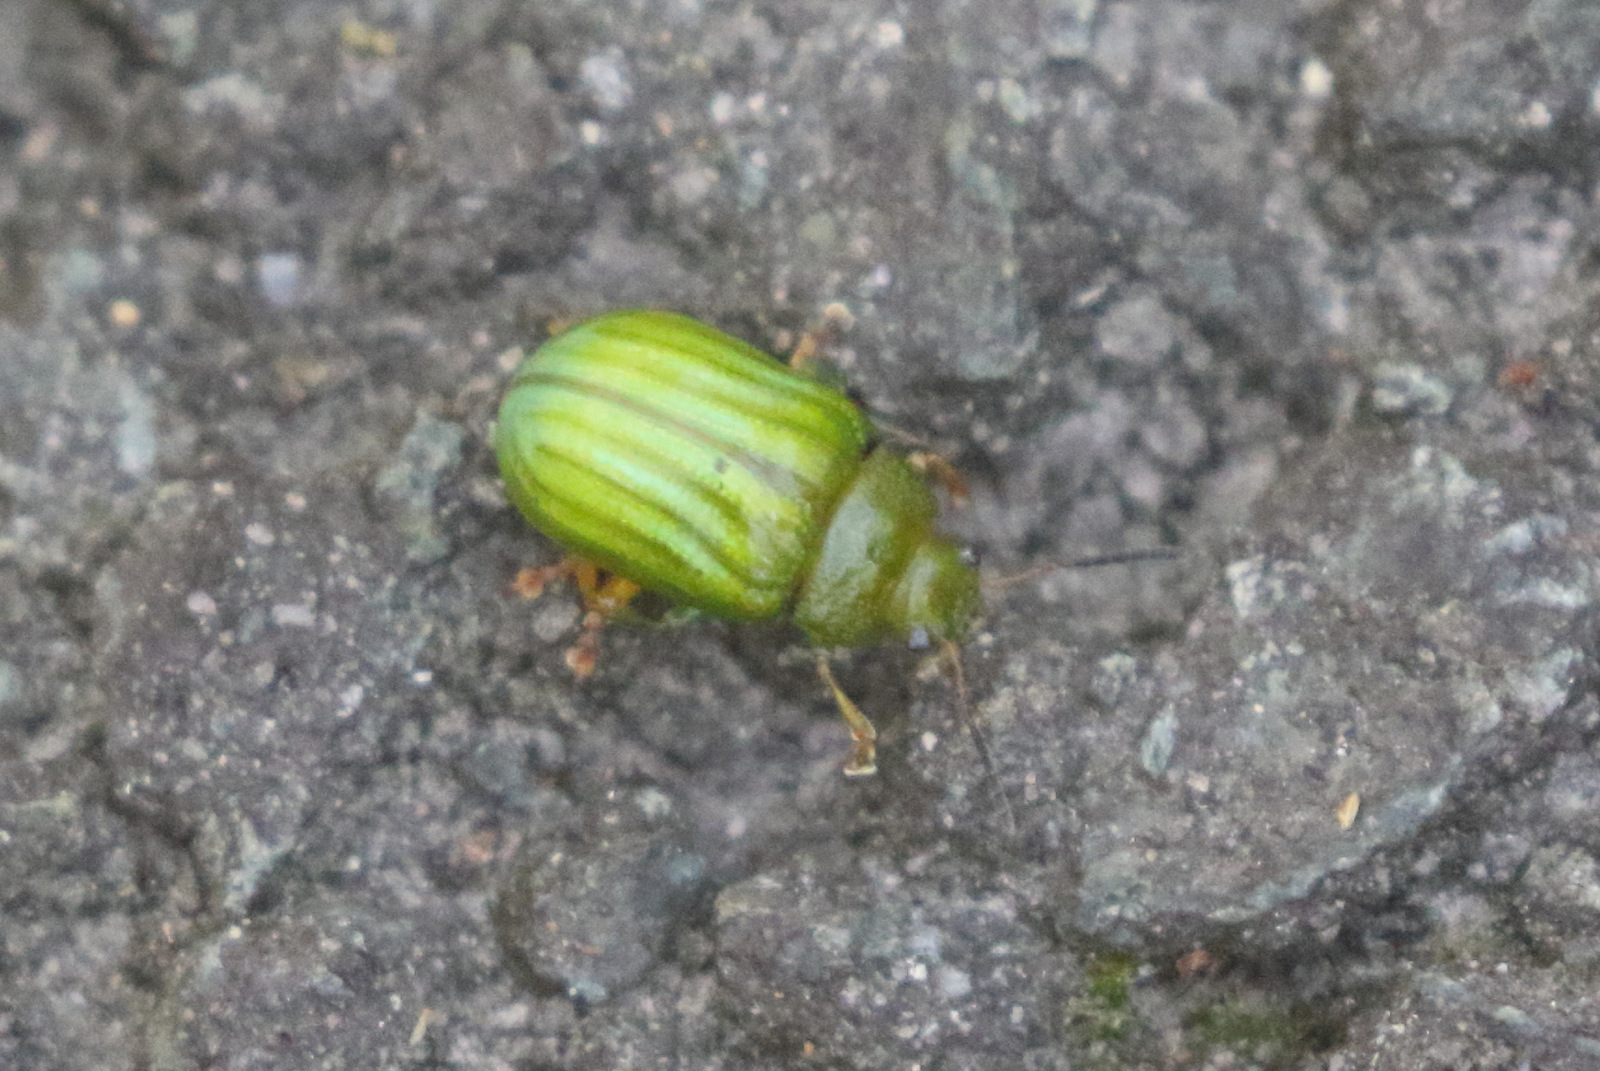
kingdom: Animalia
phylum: Arthropoda
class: Insecta
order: Coleoptera
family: Chrysomelidae
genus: Calomela
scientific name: Calomela
